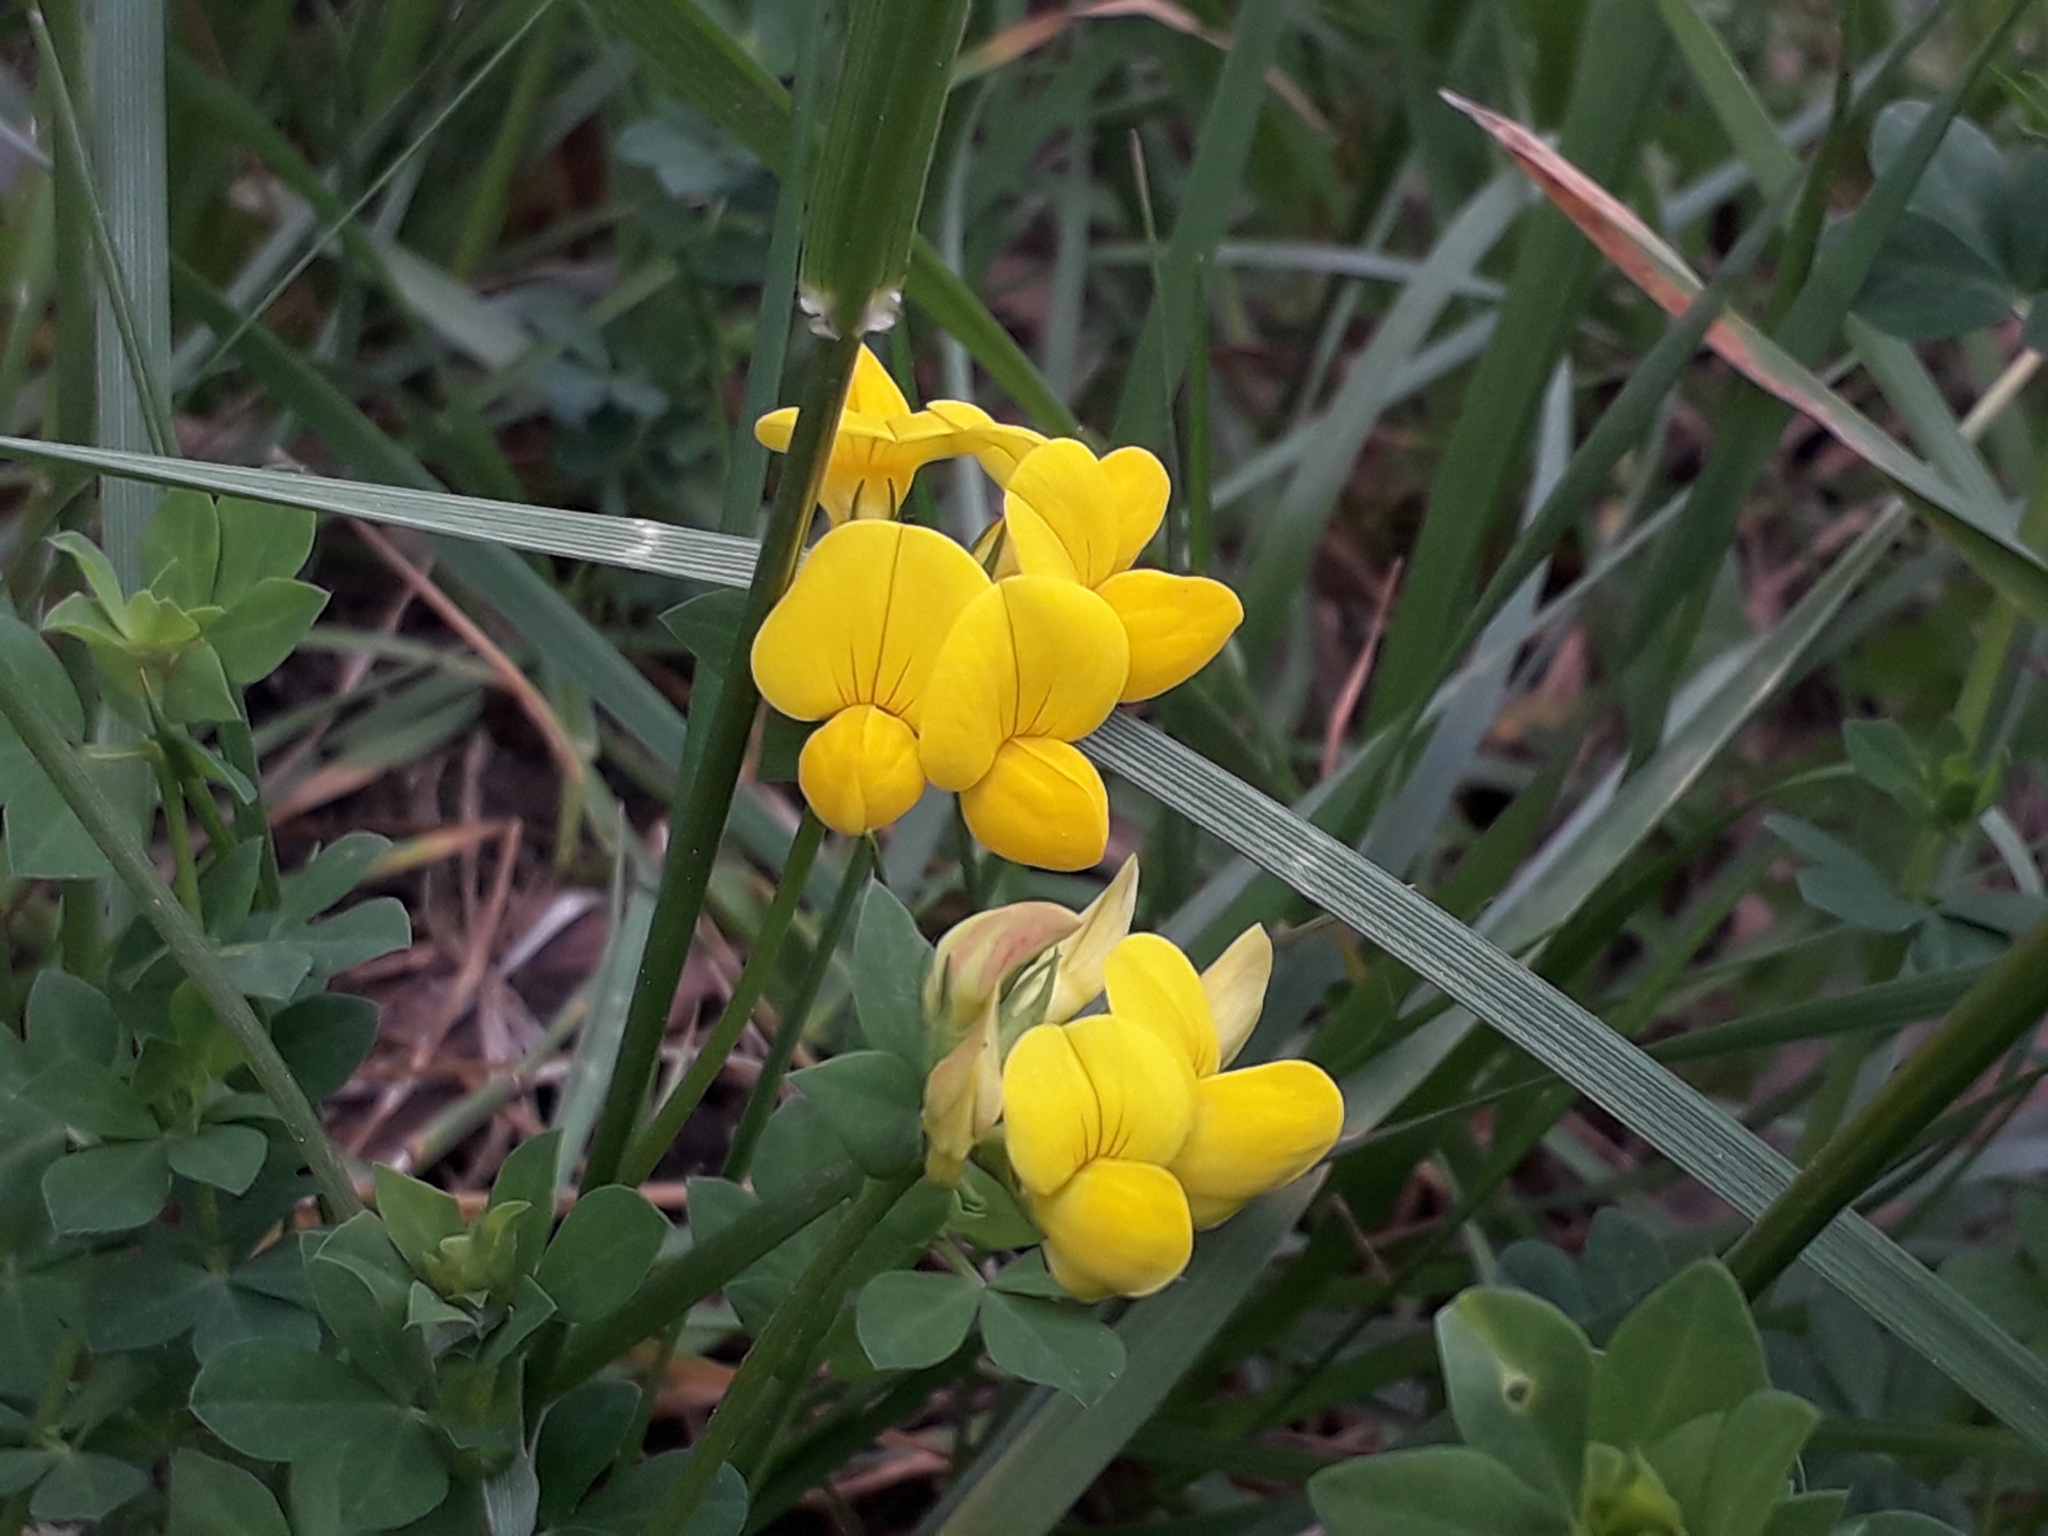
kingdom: Plantae
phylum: Tracheophyta
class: Magnoliopsida
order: Fabales
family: Fabaceae
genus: Lotus
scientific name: Lotus corniculatus
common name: Common bird's-foot-trefoil
